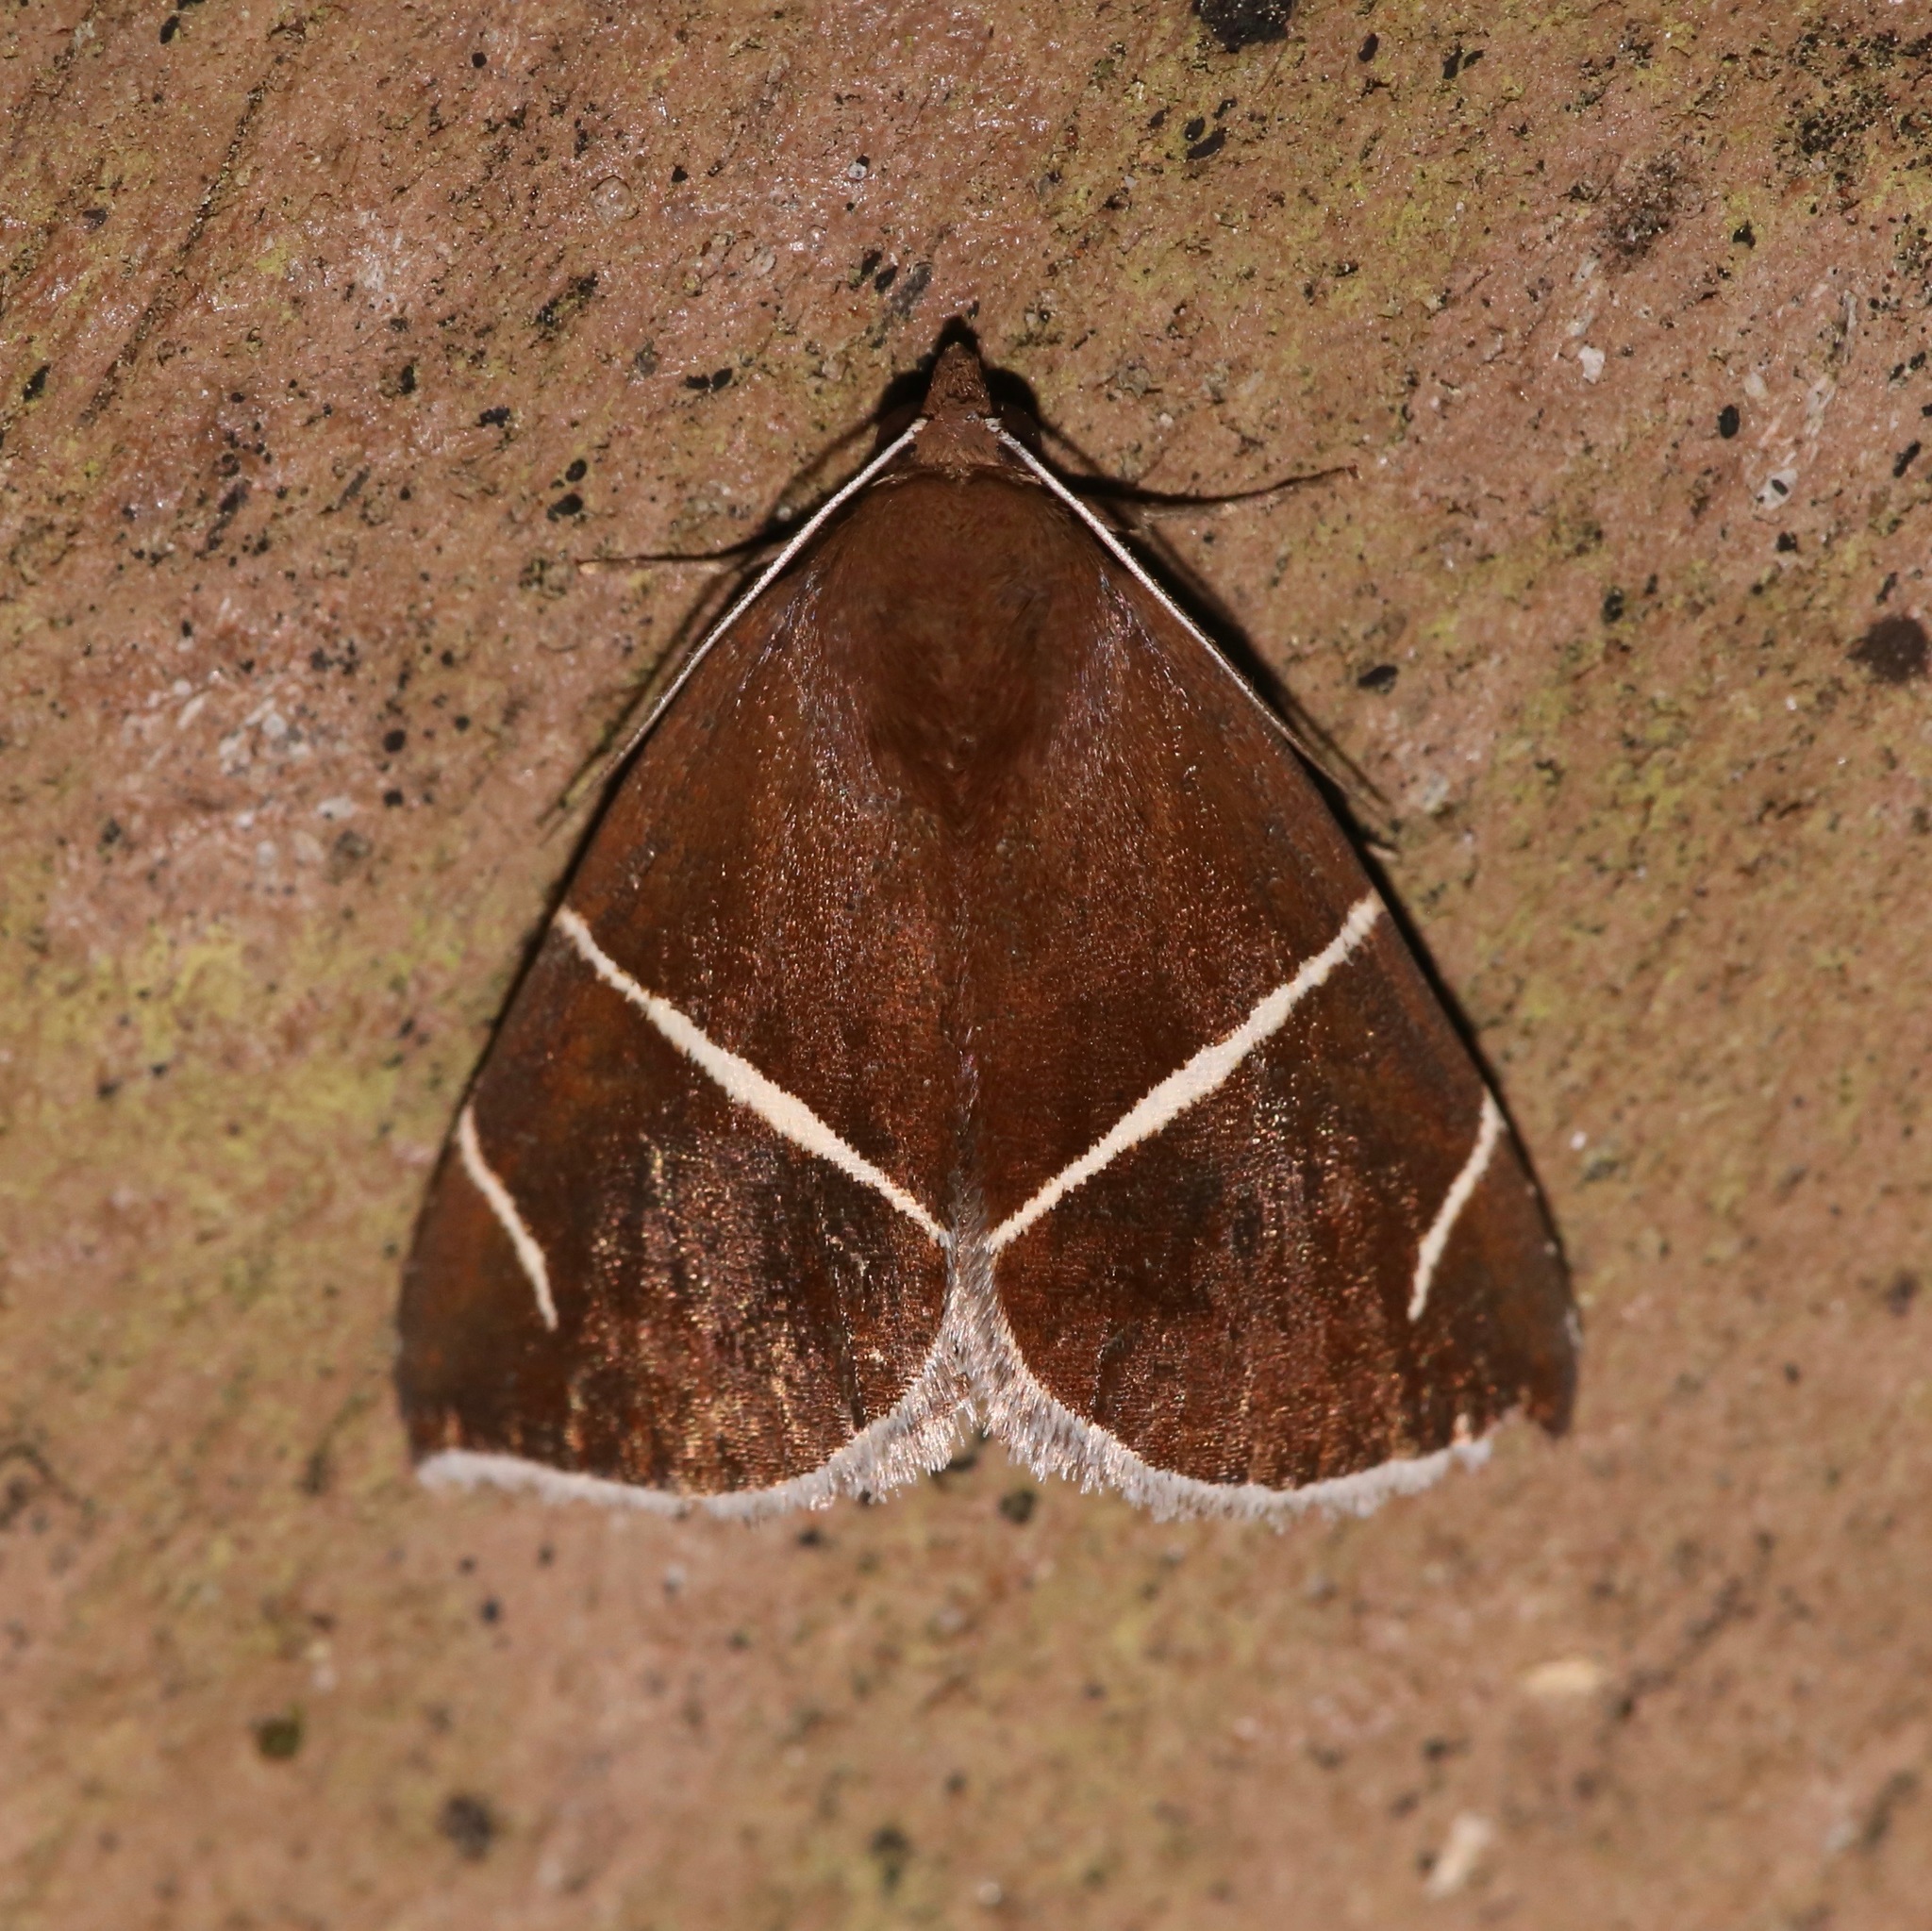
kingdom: Animalia
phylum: Arthropoda
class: Insecta
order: Lepidoptera
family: Erebidae
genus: Argyrostrotis
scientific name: Argyrostrotis anilis
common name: Short-lined chocolate
